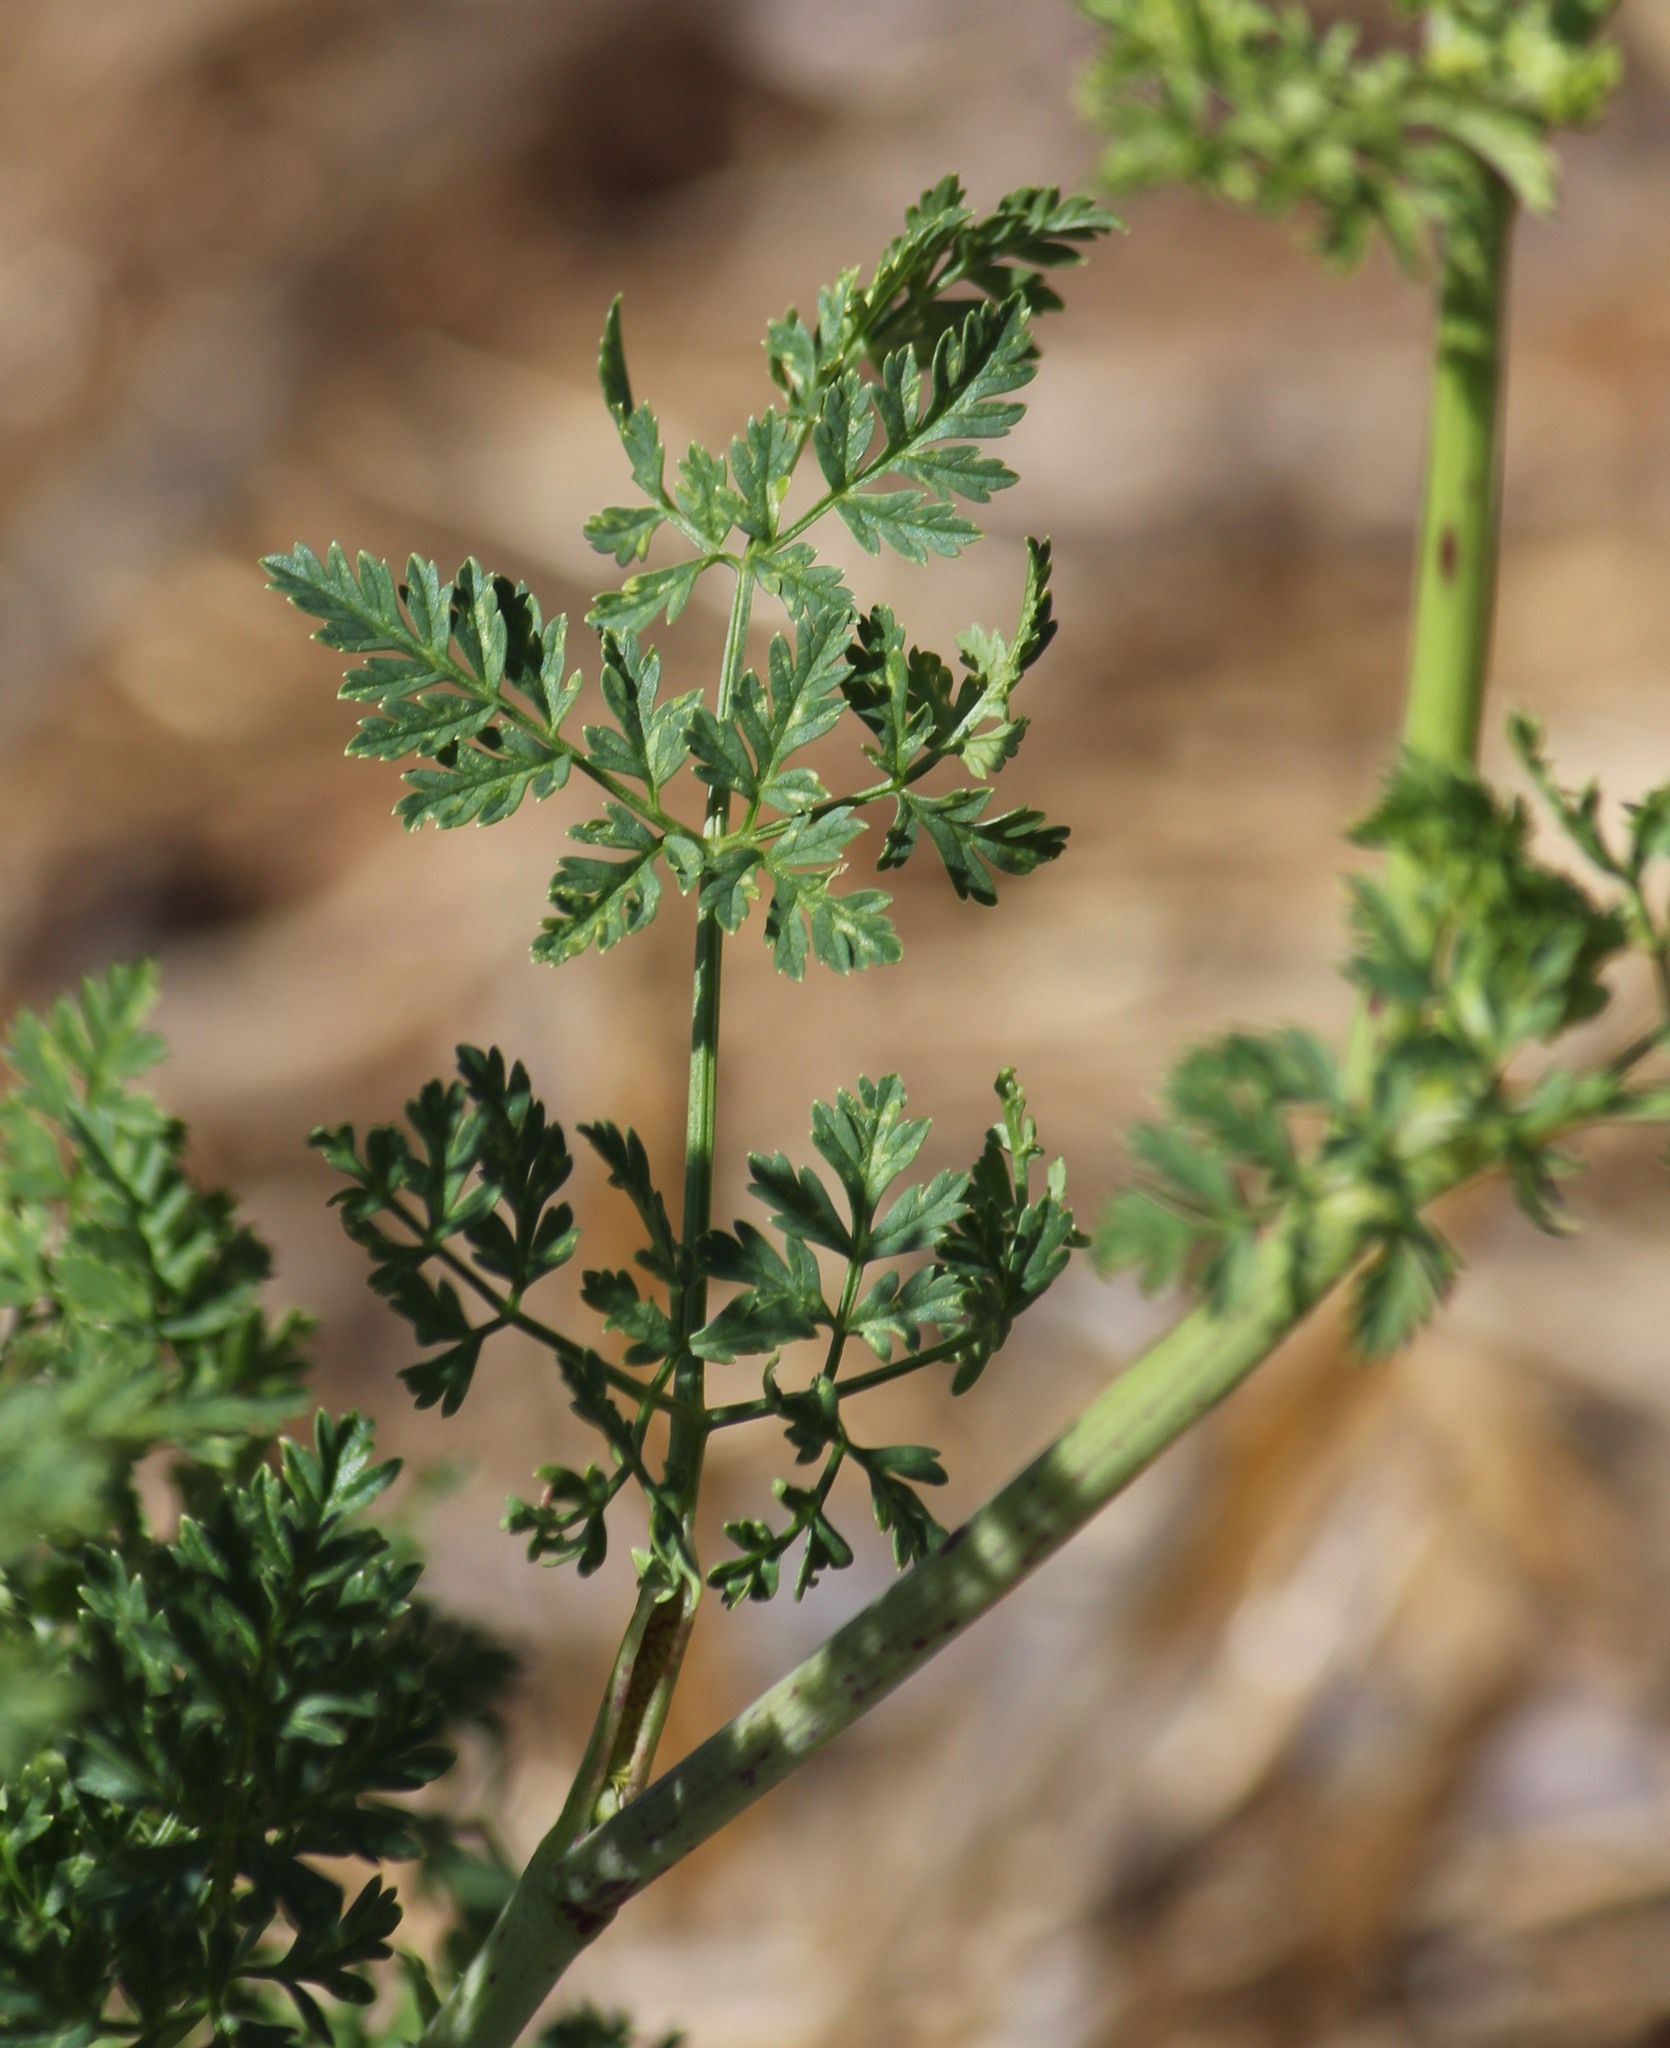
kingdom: Plantae
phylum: Tracheophyta
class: Magnoliopsida
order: Apiales
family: Apiaceae
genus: Conium
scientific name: Conium maculatum
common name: Hemlock
